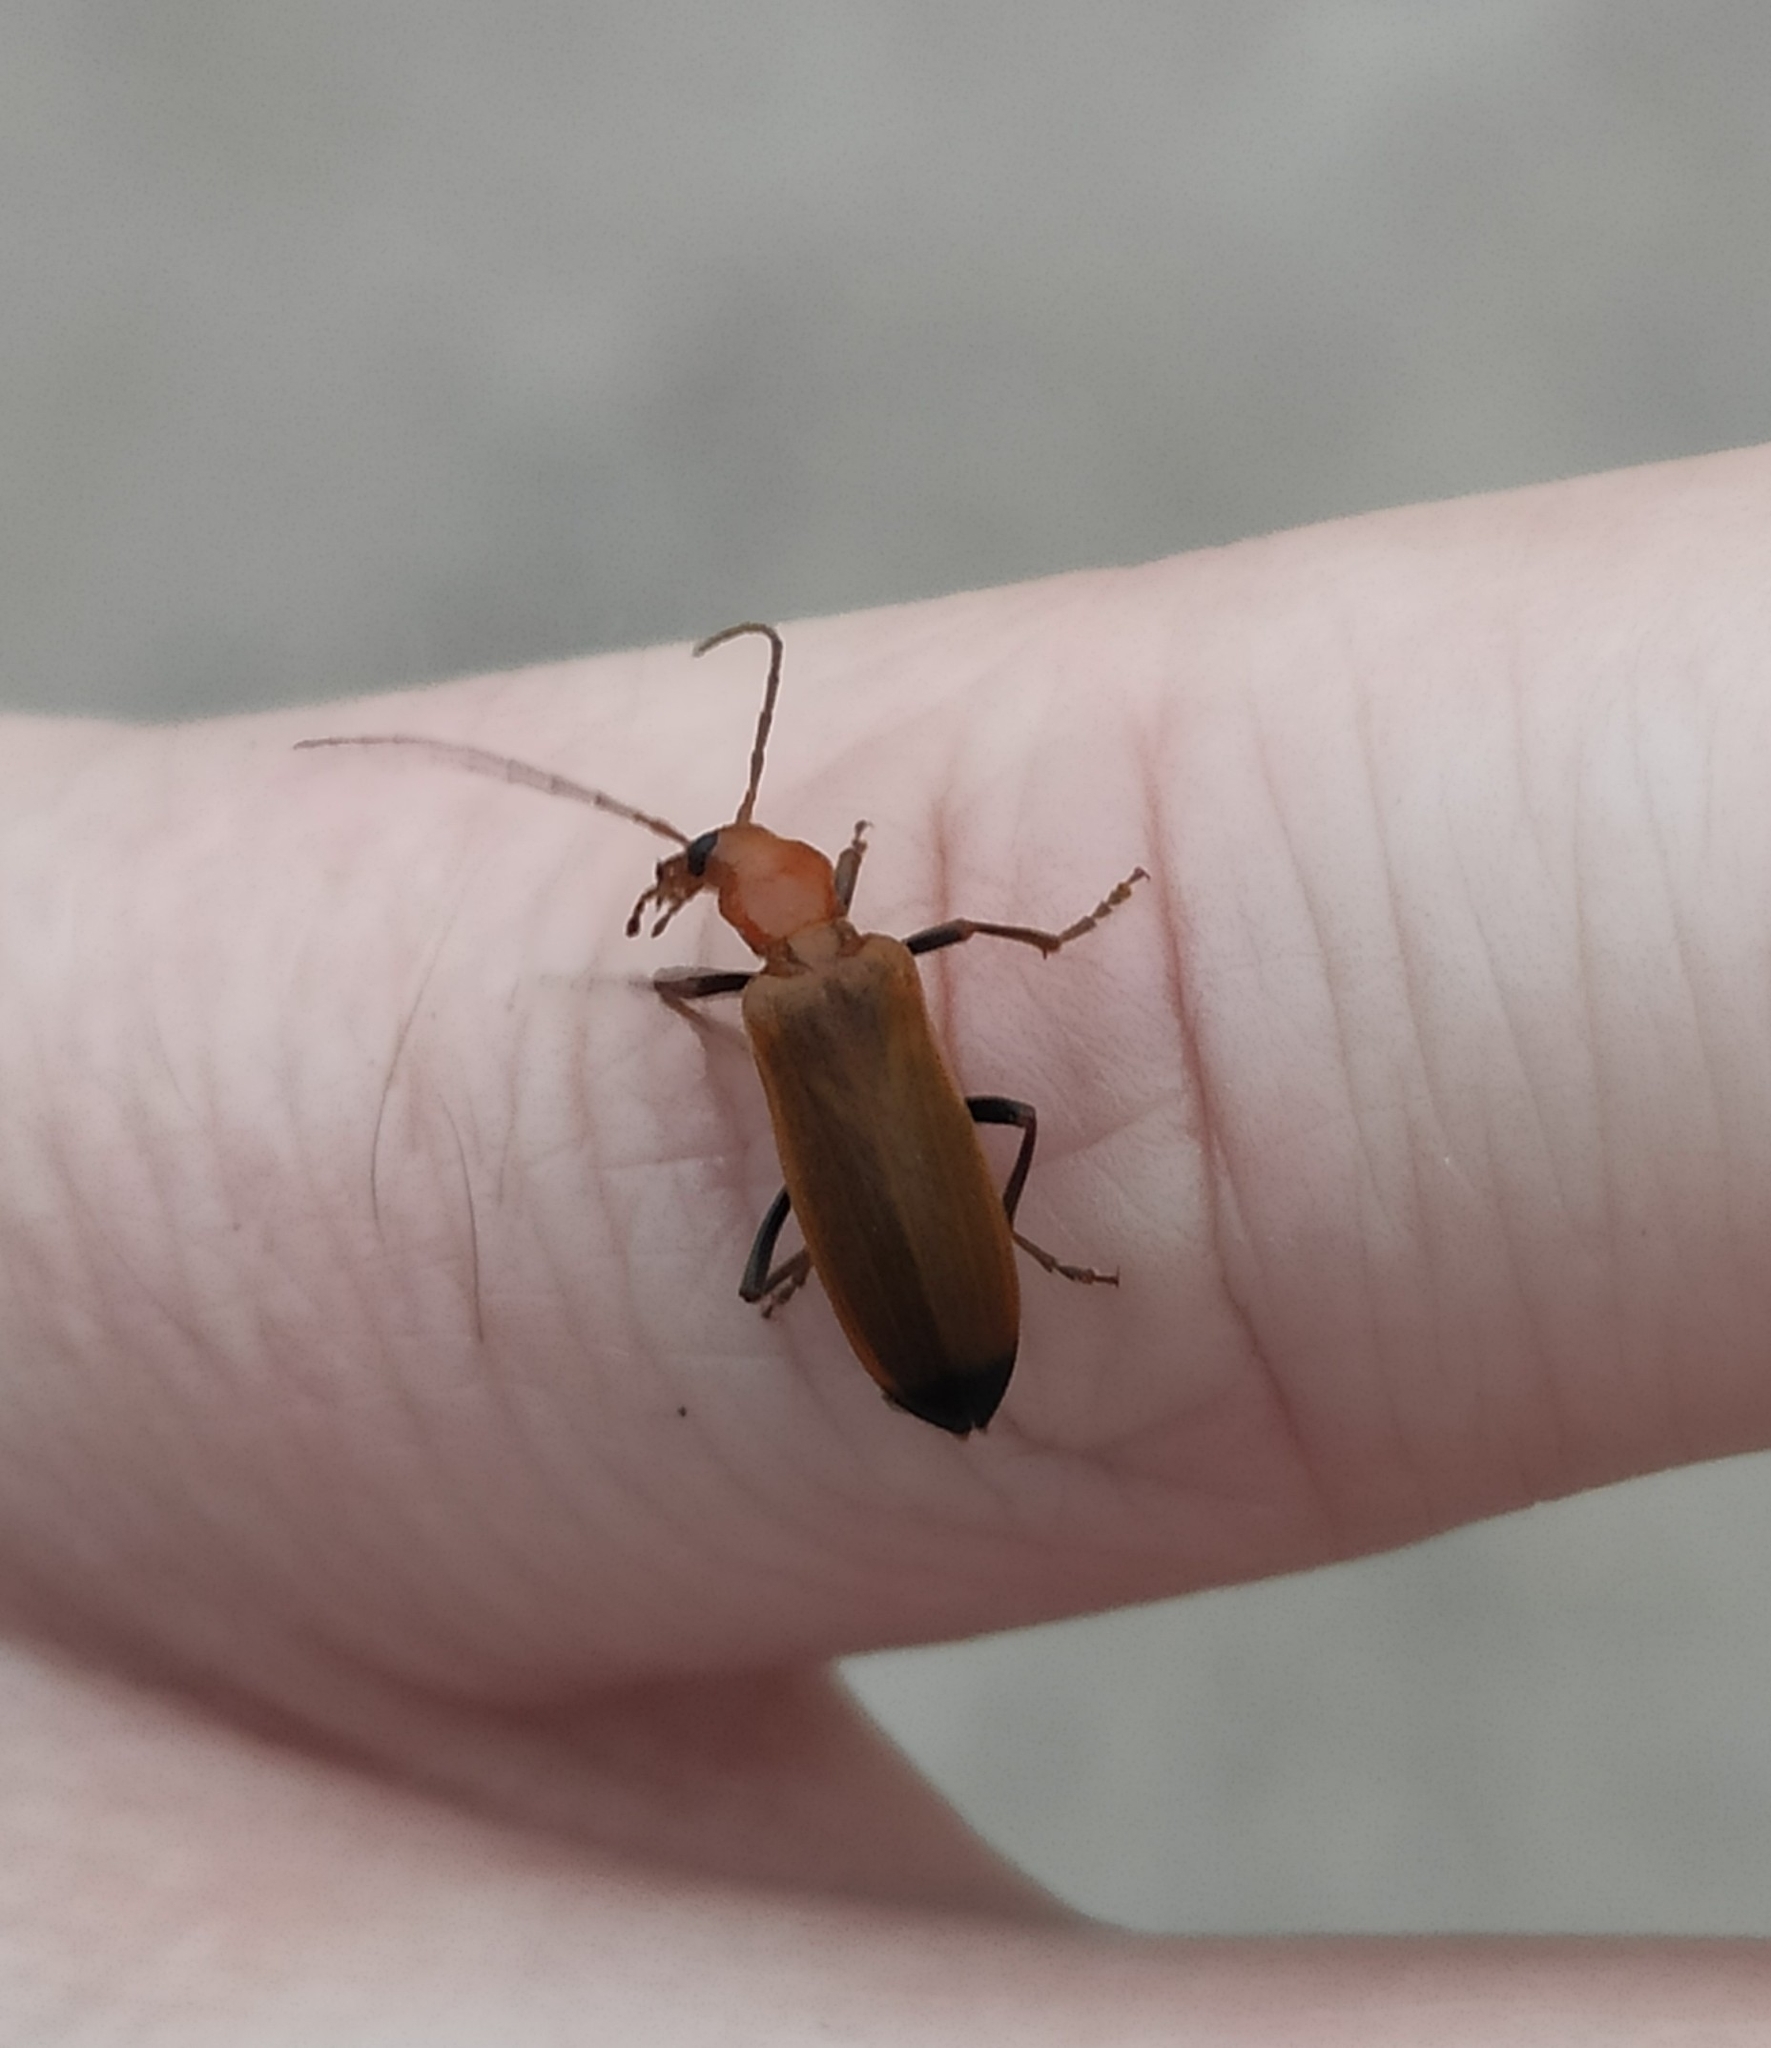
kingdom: Animalia
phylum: Arthropoda
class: Insecta
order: Coleoptera
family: Oedemeridae
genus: Nacerdes
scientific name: Nacerdes melanura
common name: Wharf borer
